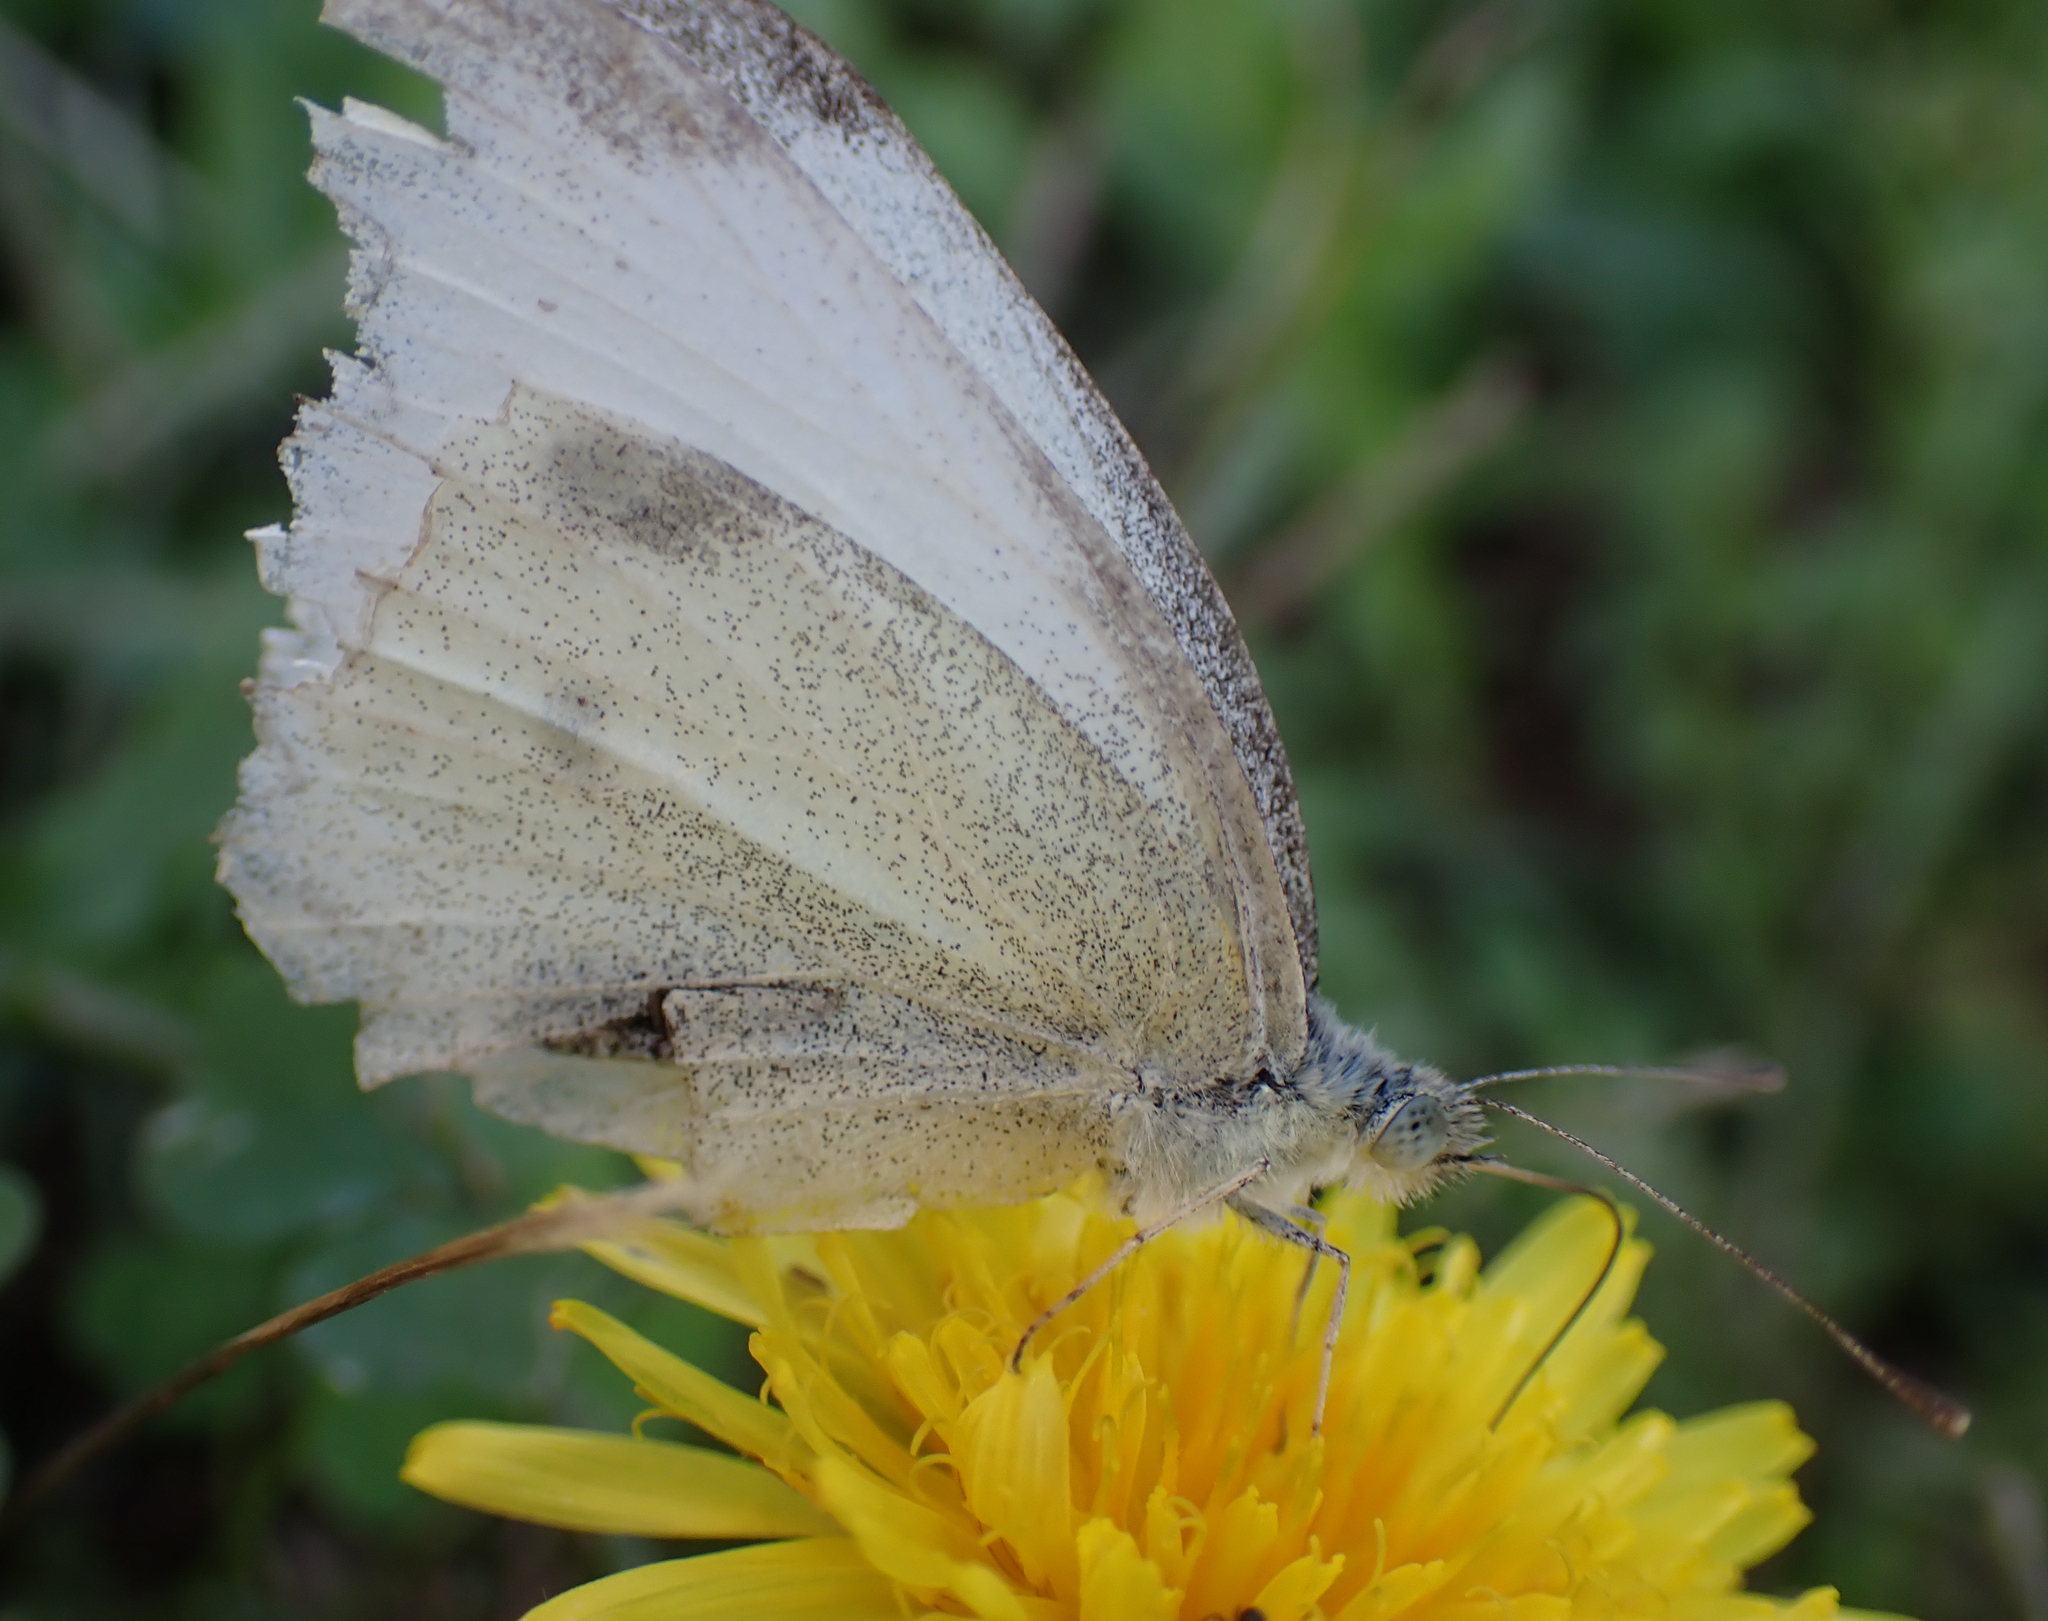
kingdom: Animalia
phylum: Arthropoda
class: Insecta
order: Lepidoptera
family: Pieridae
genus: Pieris
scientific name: Pieris rapae
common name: Small white
